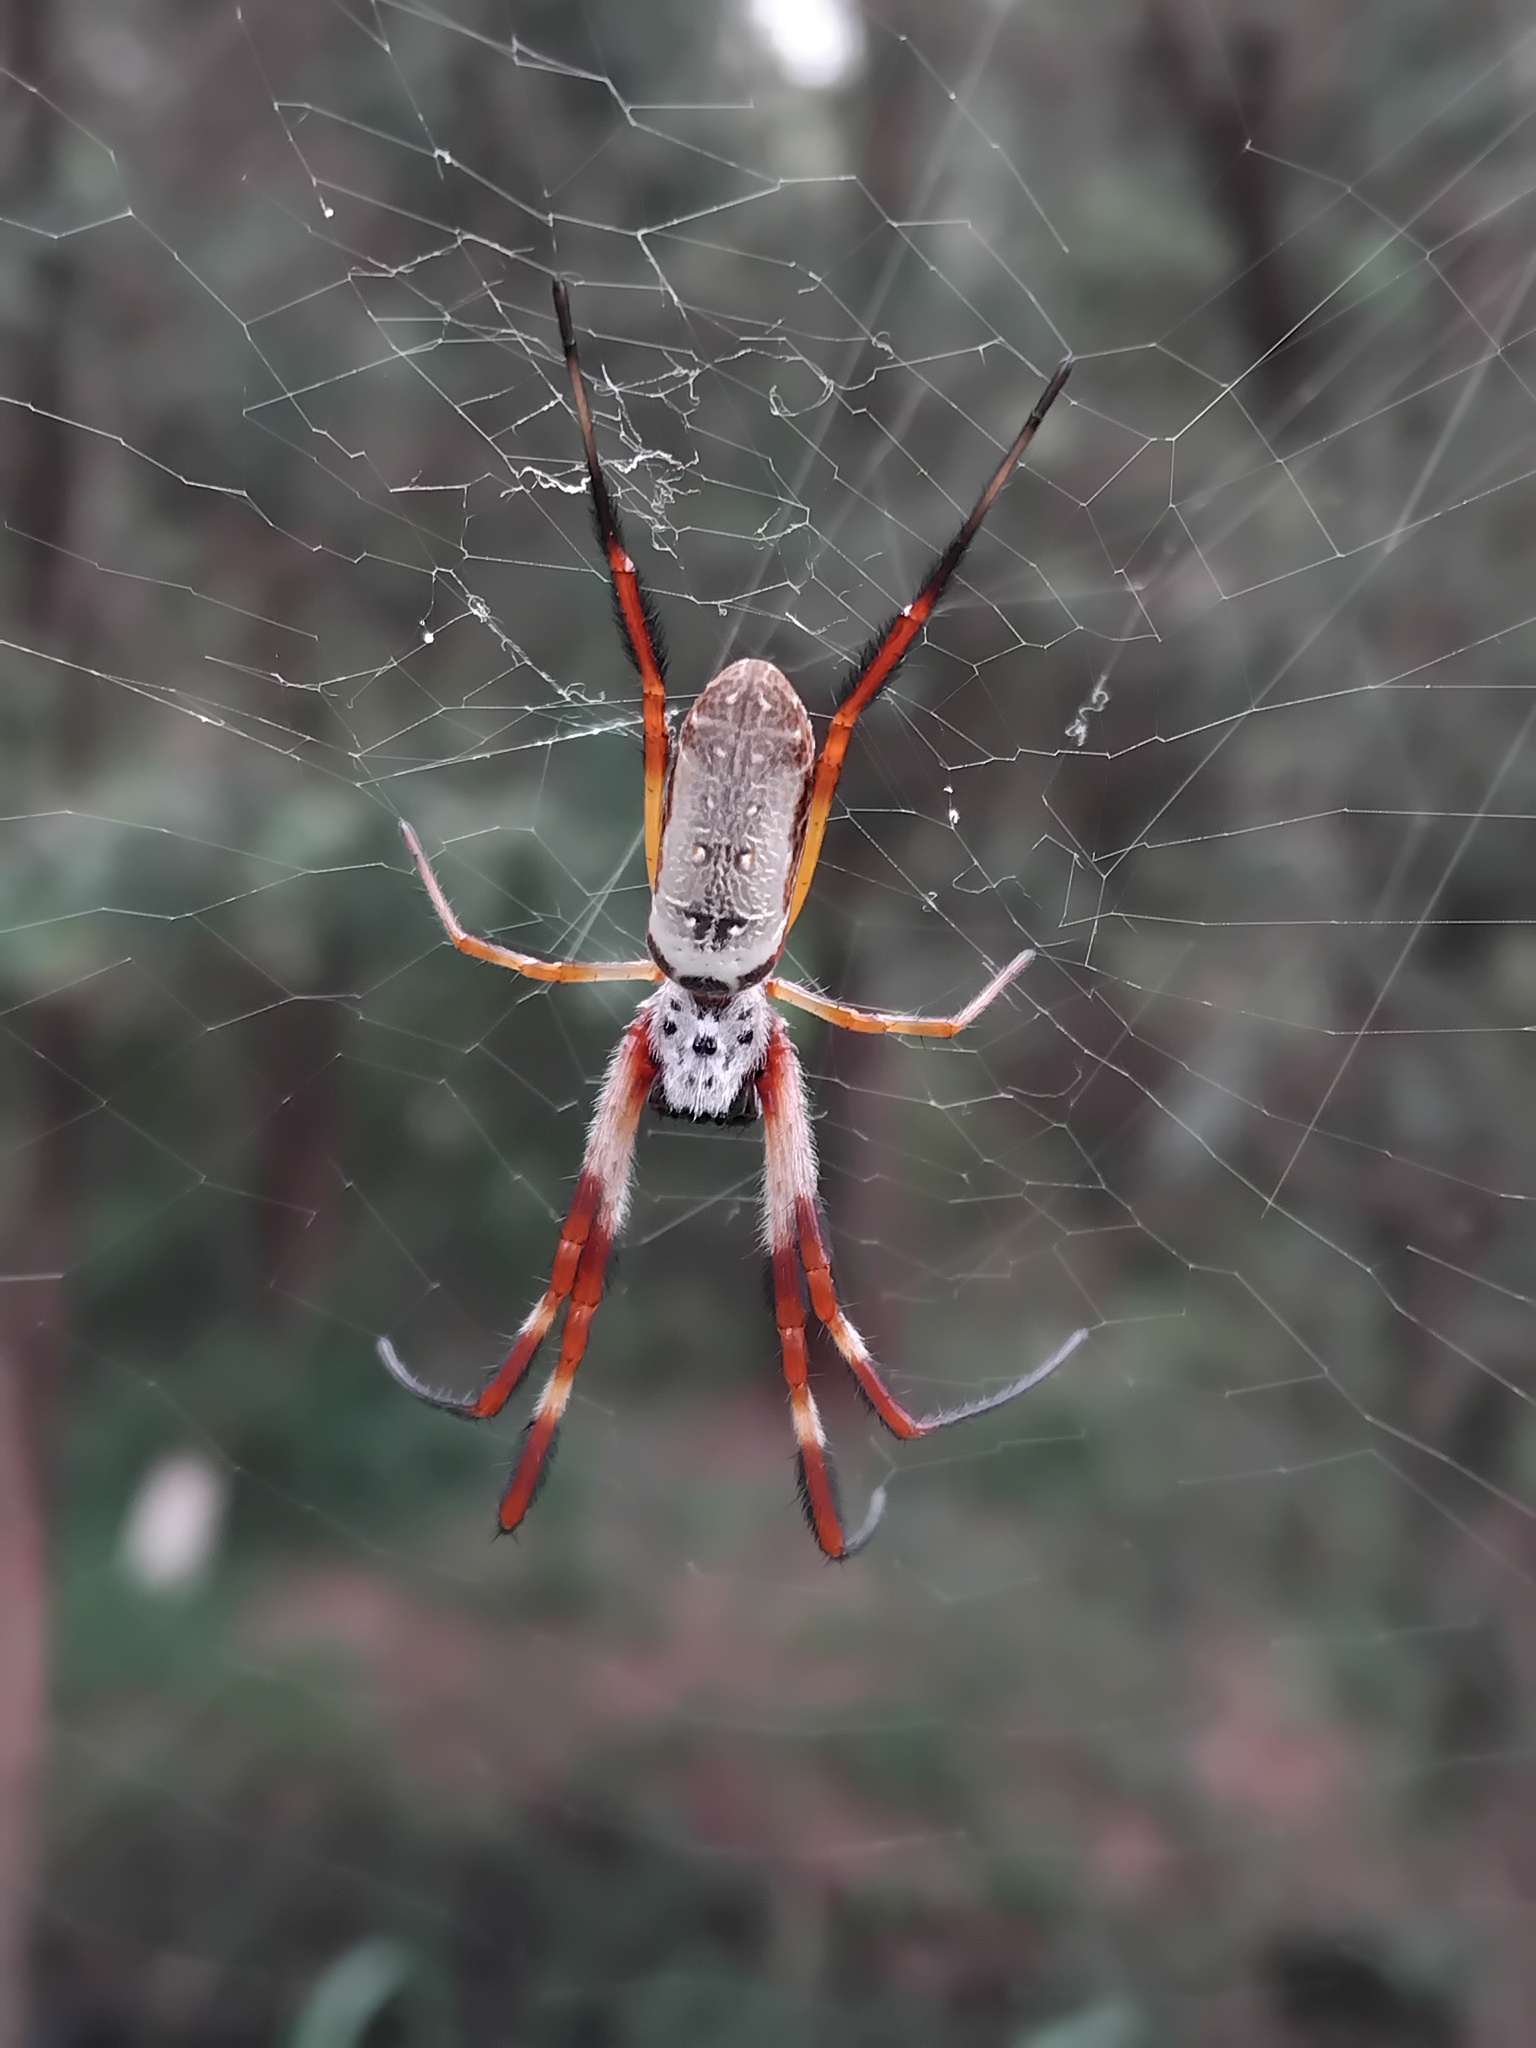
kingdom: Animalia
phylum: Arthropoda
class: Arachnida
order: Araneae
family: Araneidae
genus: Trichonephila
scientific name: Trichonephila edulis
